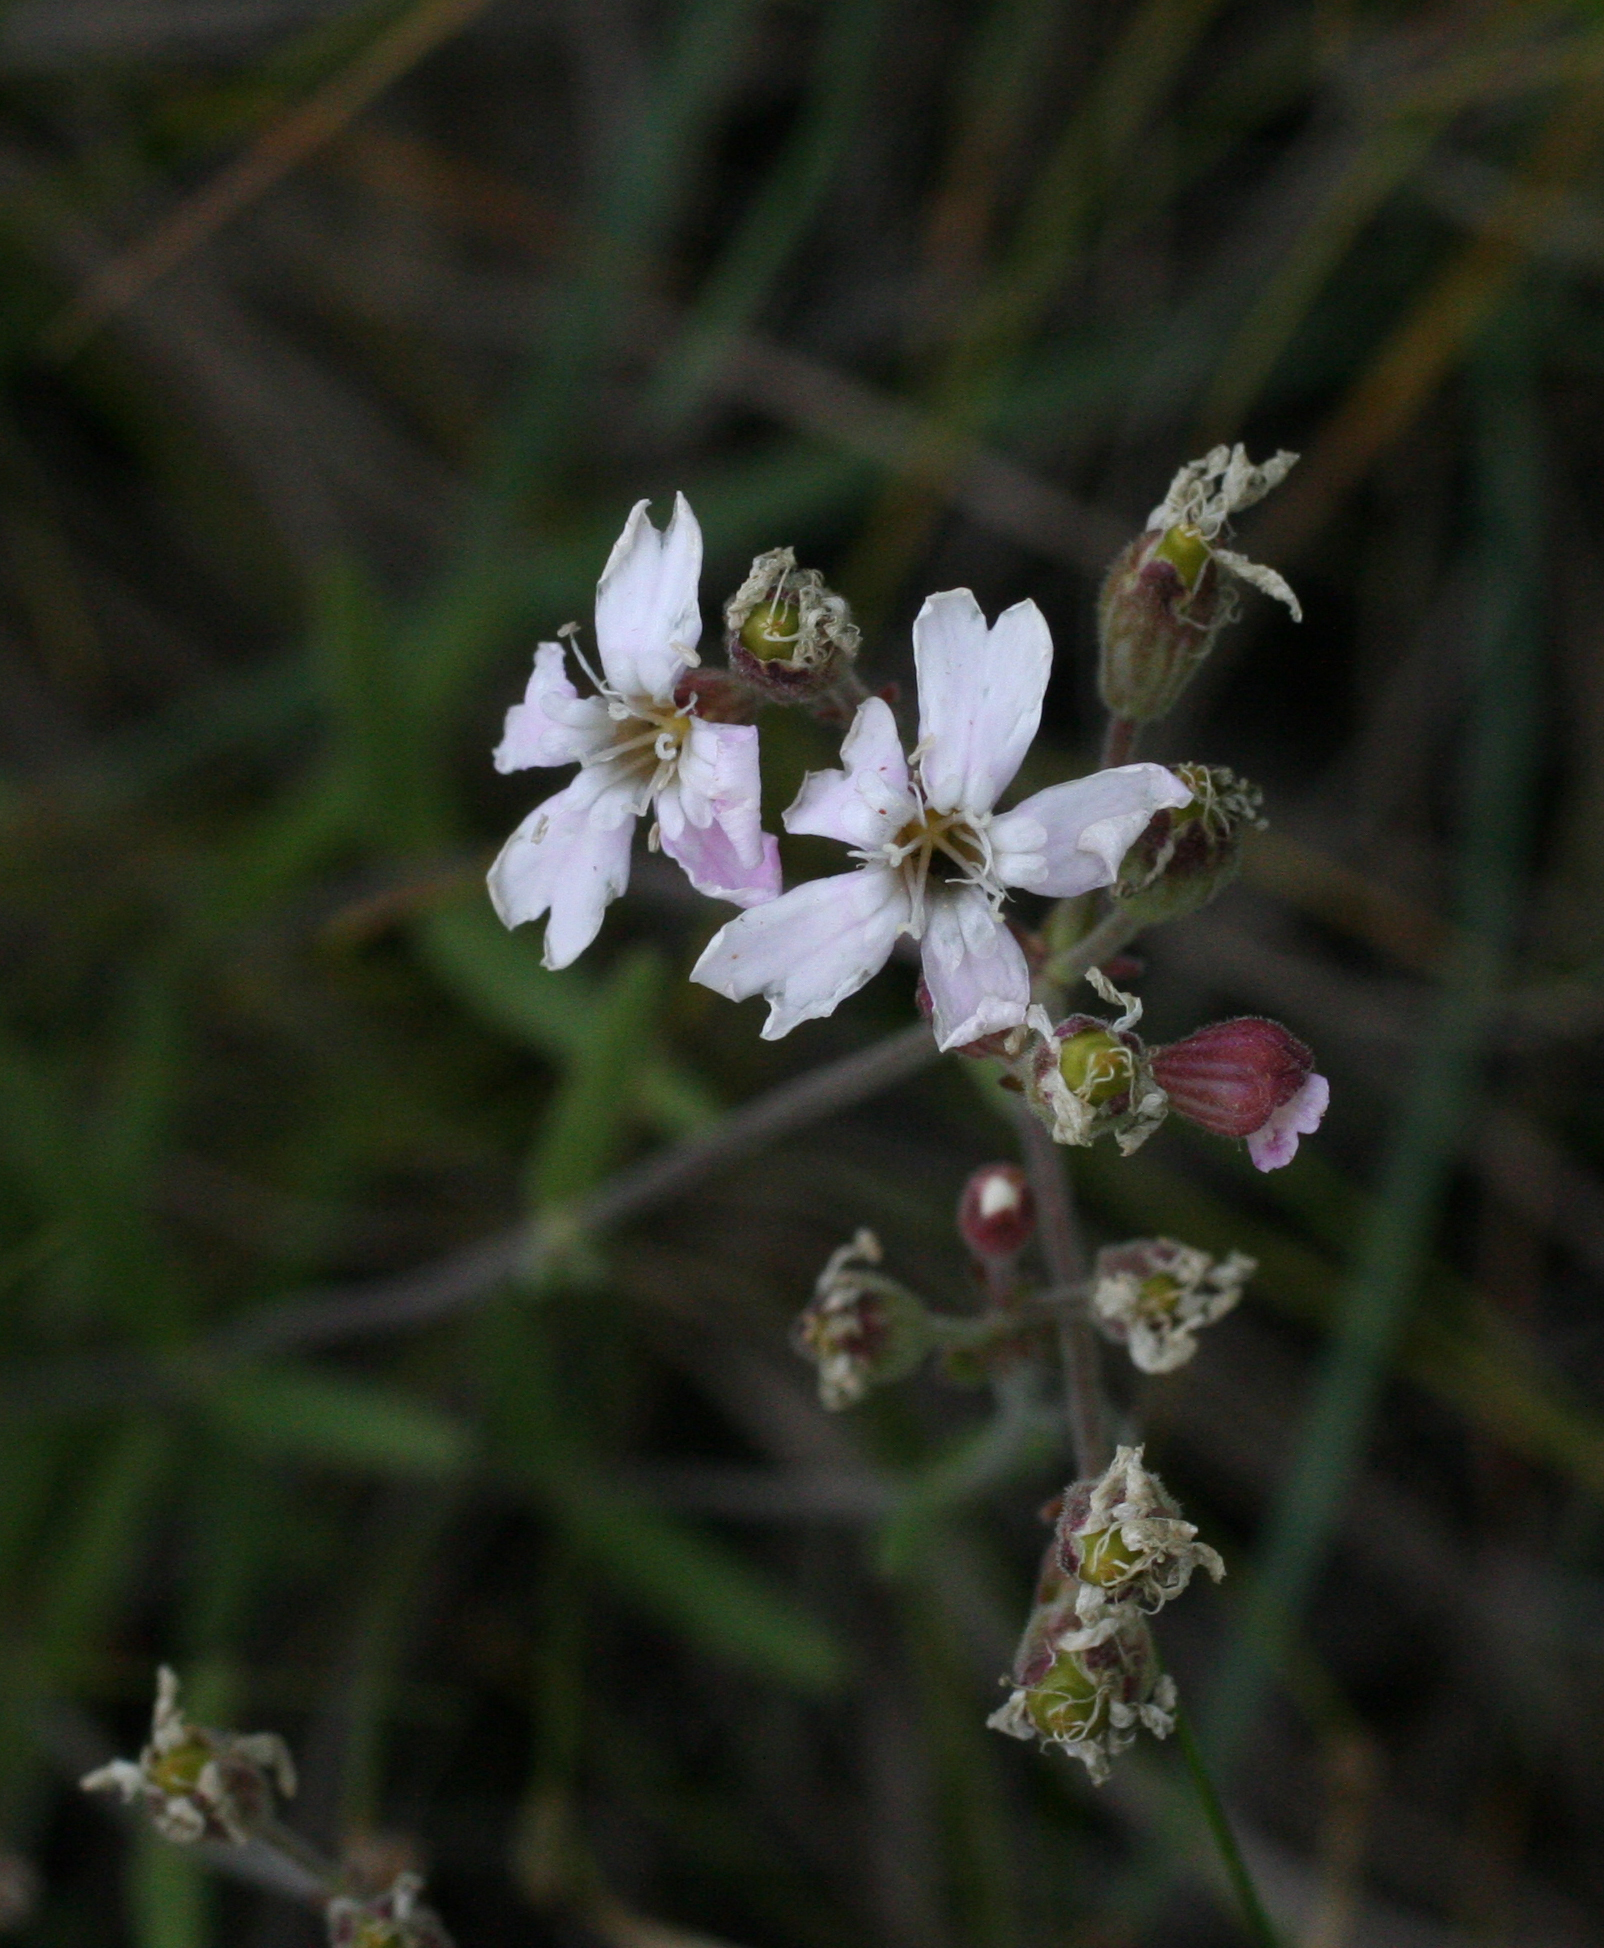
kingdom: Plantae
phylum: Tracheophyta
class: Magnoliopsida
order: Caryophyllales
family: Caryophyllaceae
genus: Silene
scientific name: Silene orientalimongolica
